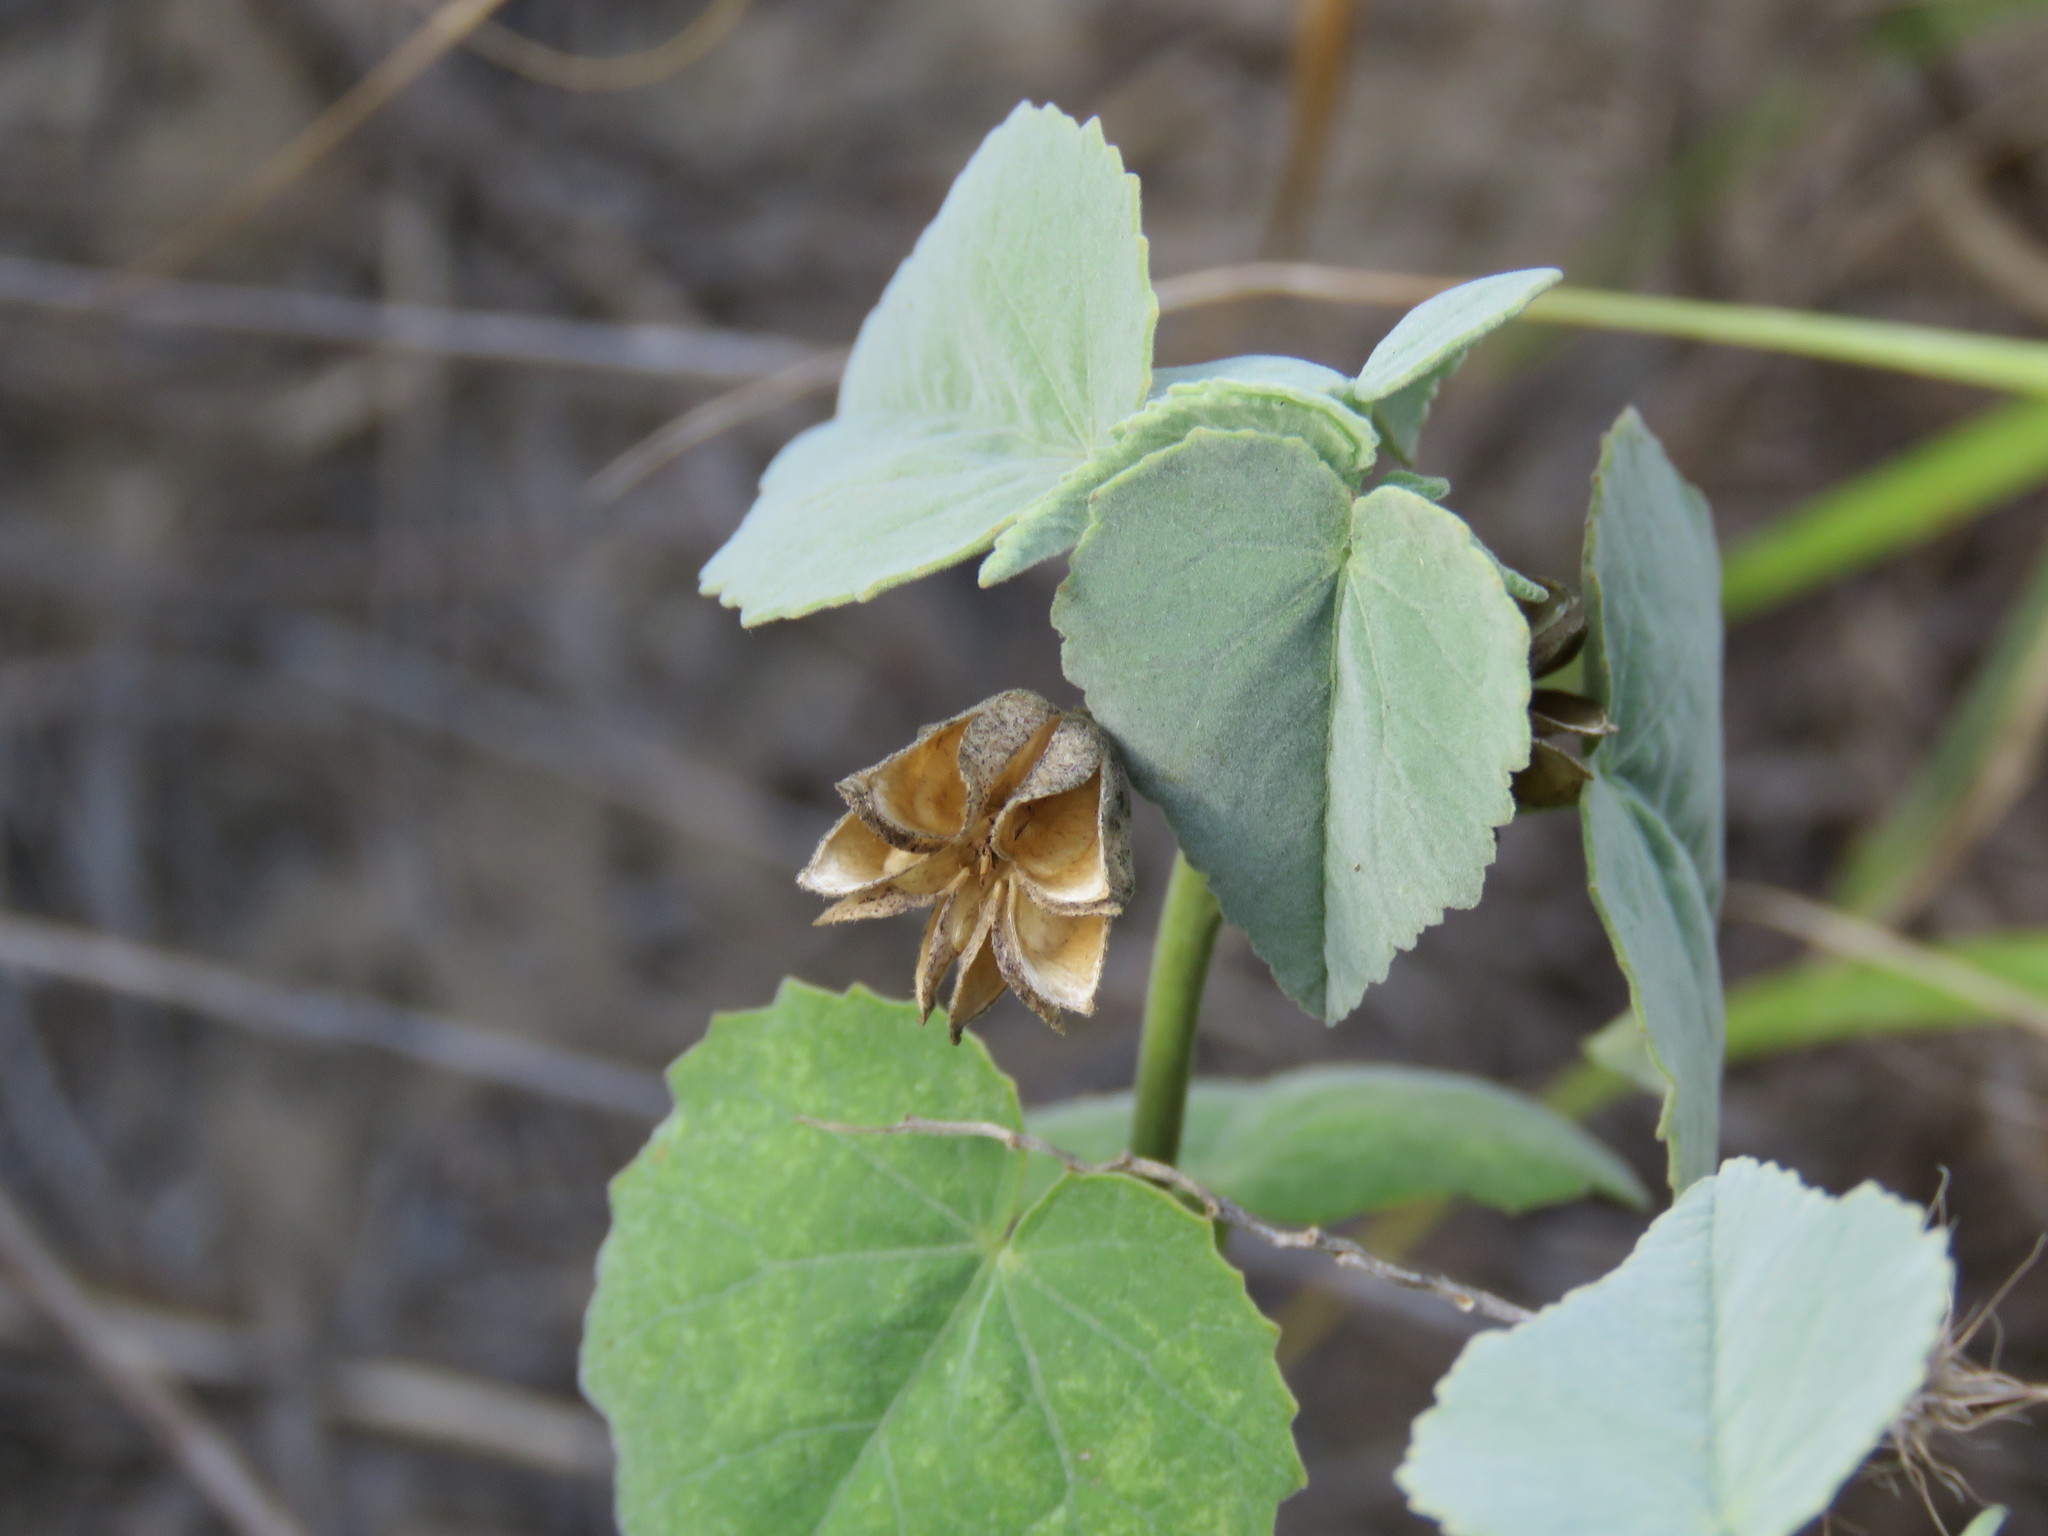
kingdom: Plantae
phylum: Tracheophyta
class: Magnoliopsida
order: Malvales
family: Malvaceae
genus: Abutilon
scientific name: Abutilon fruticosum
